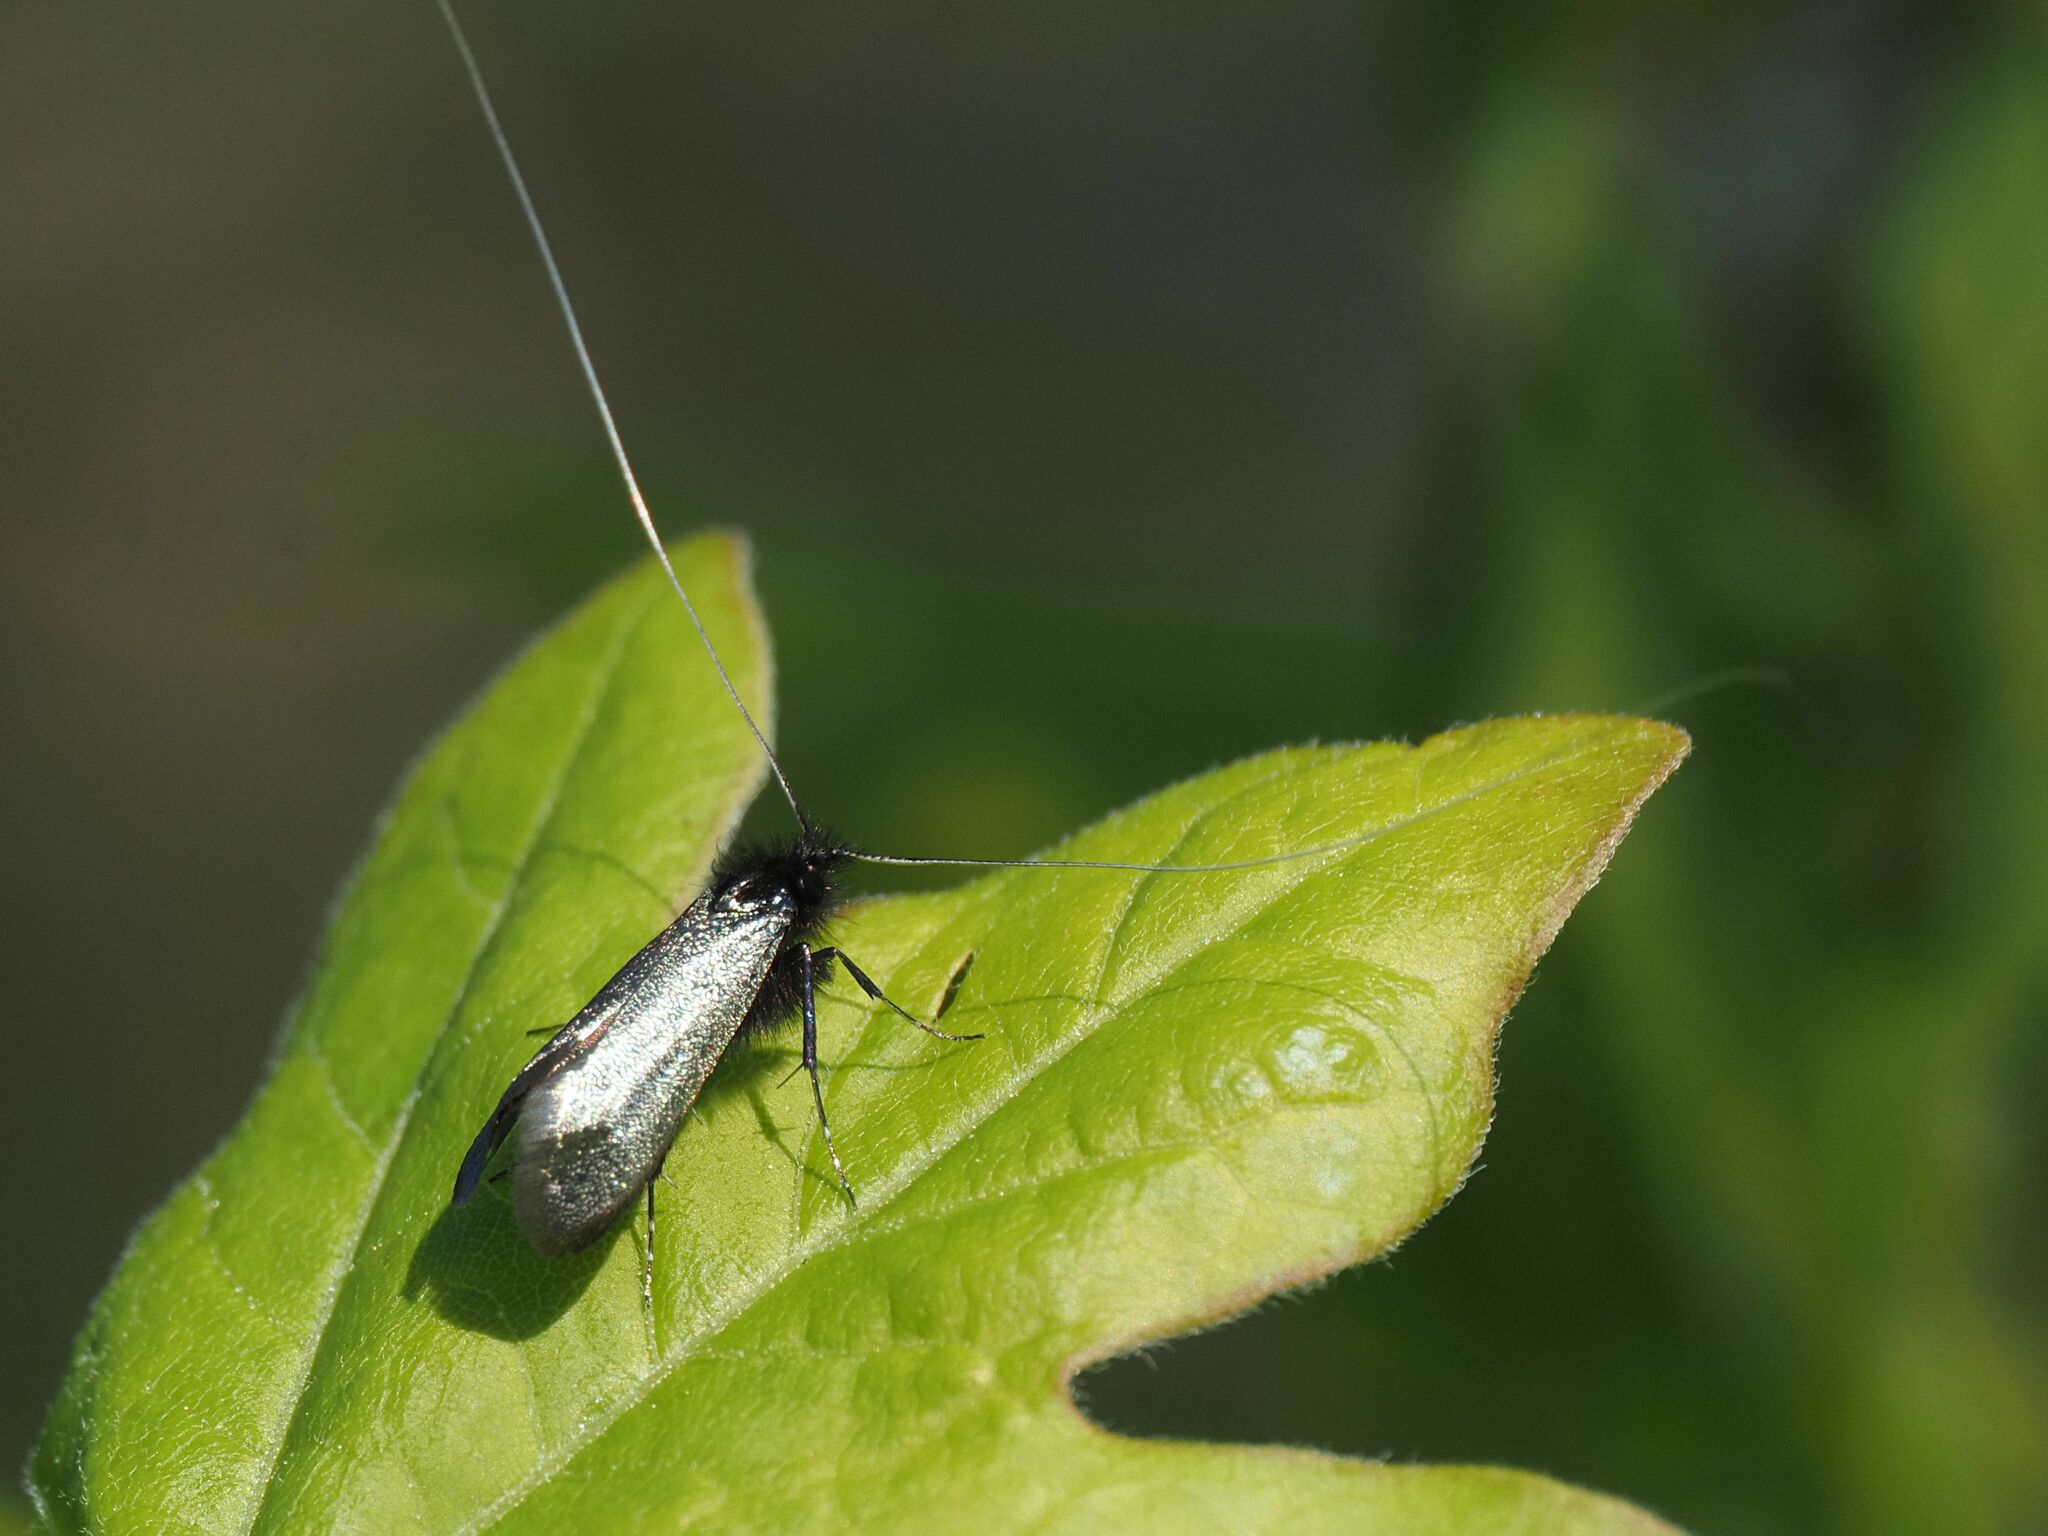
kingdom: Animalia
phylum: Arthropoda
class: Insecta
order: Lepidoptera
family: Adelidae
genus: Adela
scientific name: Adela viridella
